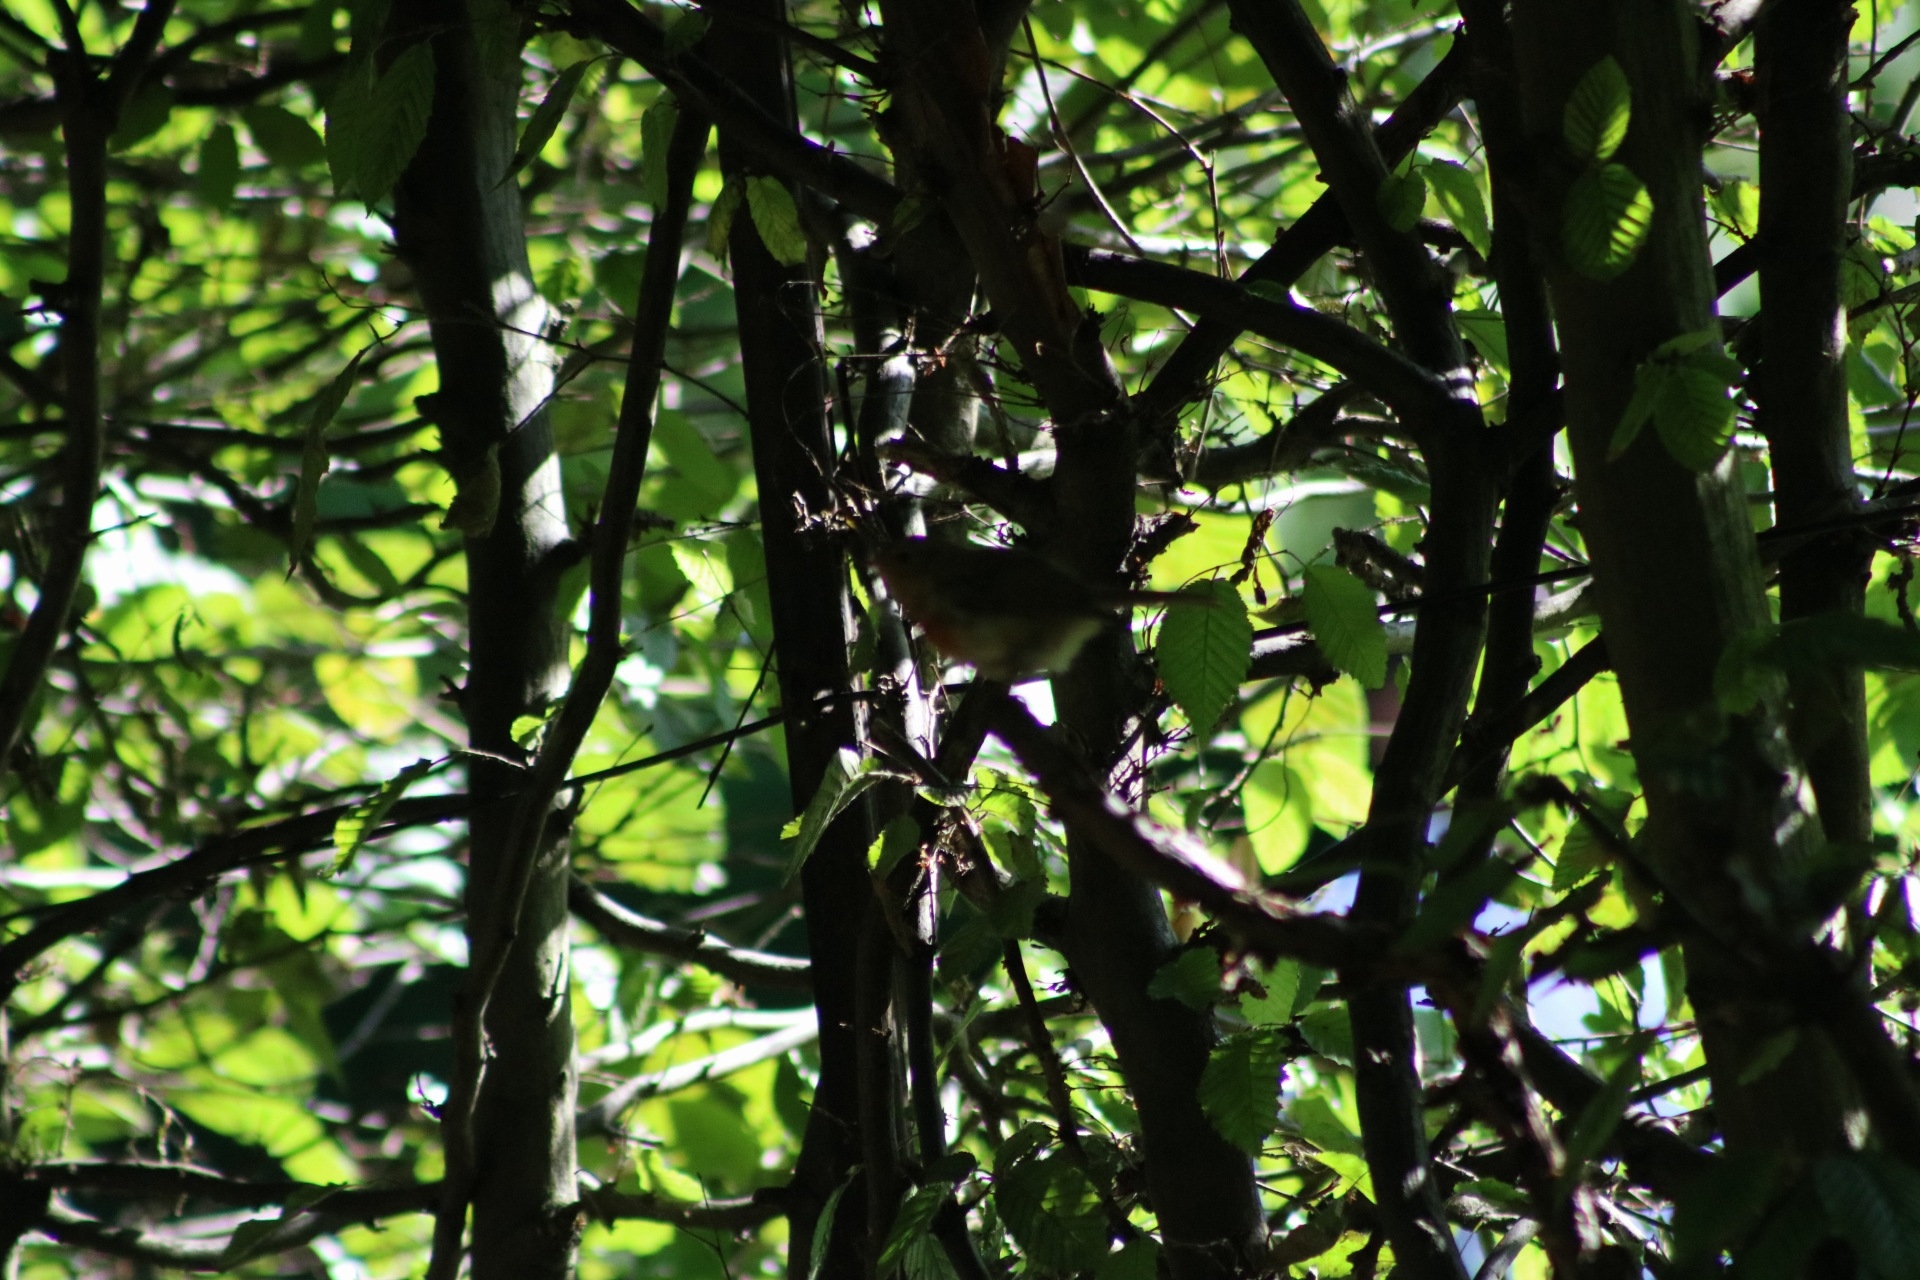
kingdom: Animalia
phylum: Chordata
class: Aves
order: Passeriformes
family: Muscicapidae
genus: Erithacus
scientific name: Erithacus rubecula
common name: European robin
